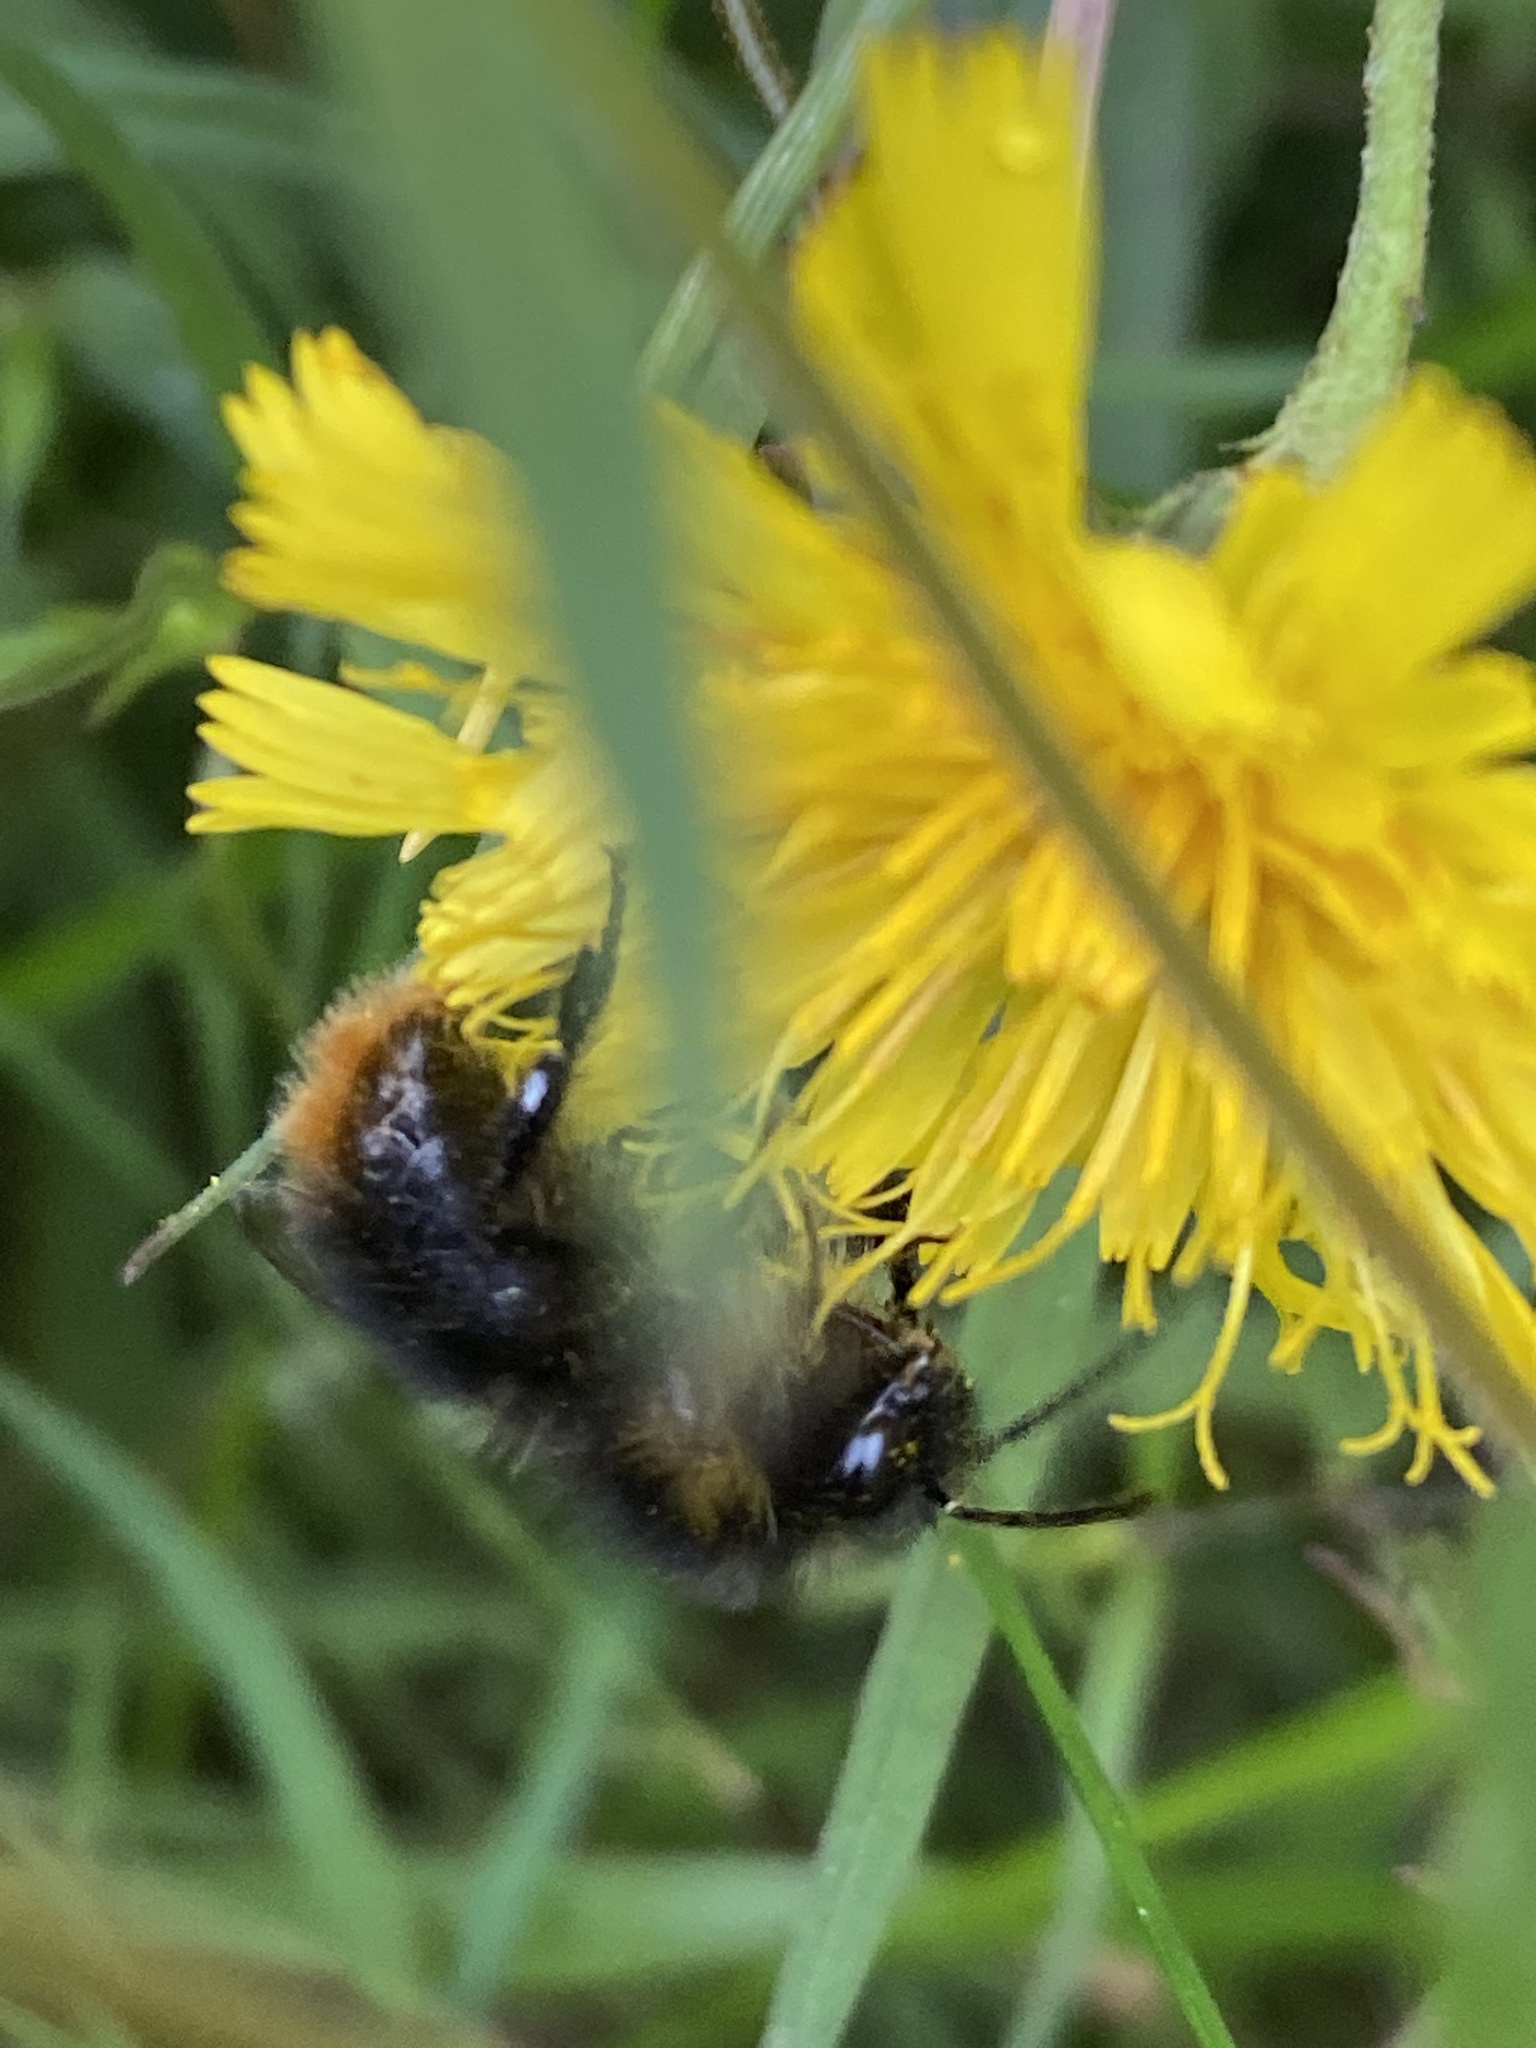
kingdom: Animalia
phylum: Arthropoda
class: Insecta
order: Hymenoptera
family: Apidae
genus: Bombus
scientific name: Bombus soroeensis
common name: Broken-belted humble-bee
